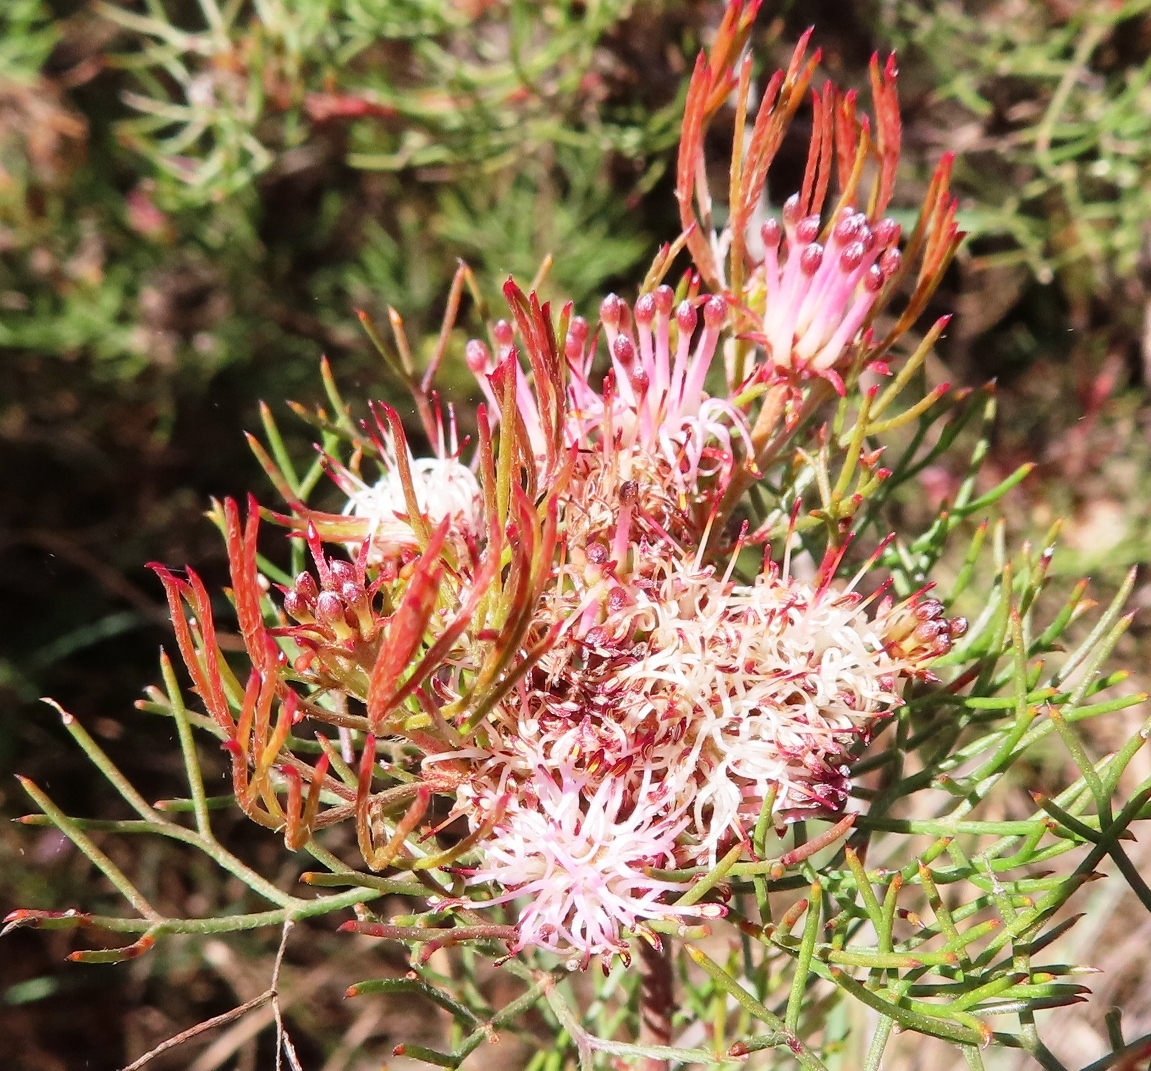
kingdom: Plantae
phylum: Tracheophyta
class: Magnoliopsida
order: Proteales
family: Proteaceae
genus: Serruria
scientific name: Serruria fasciflora
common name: Common pin spiderhead
